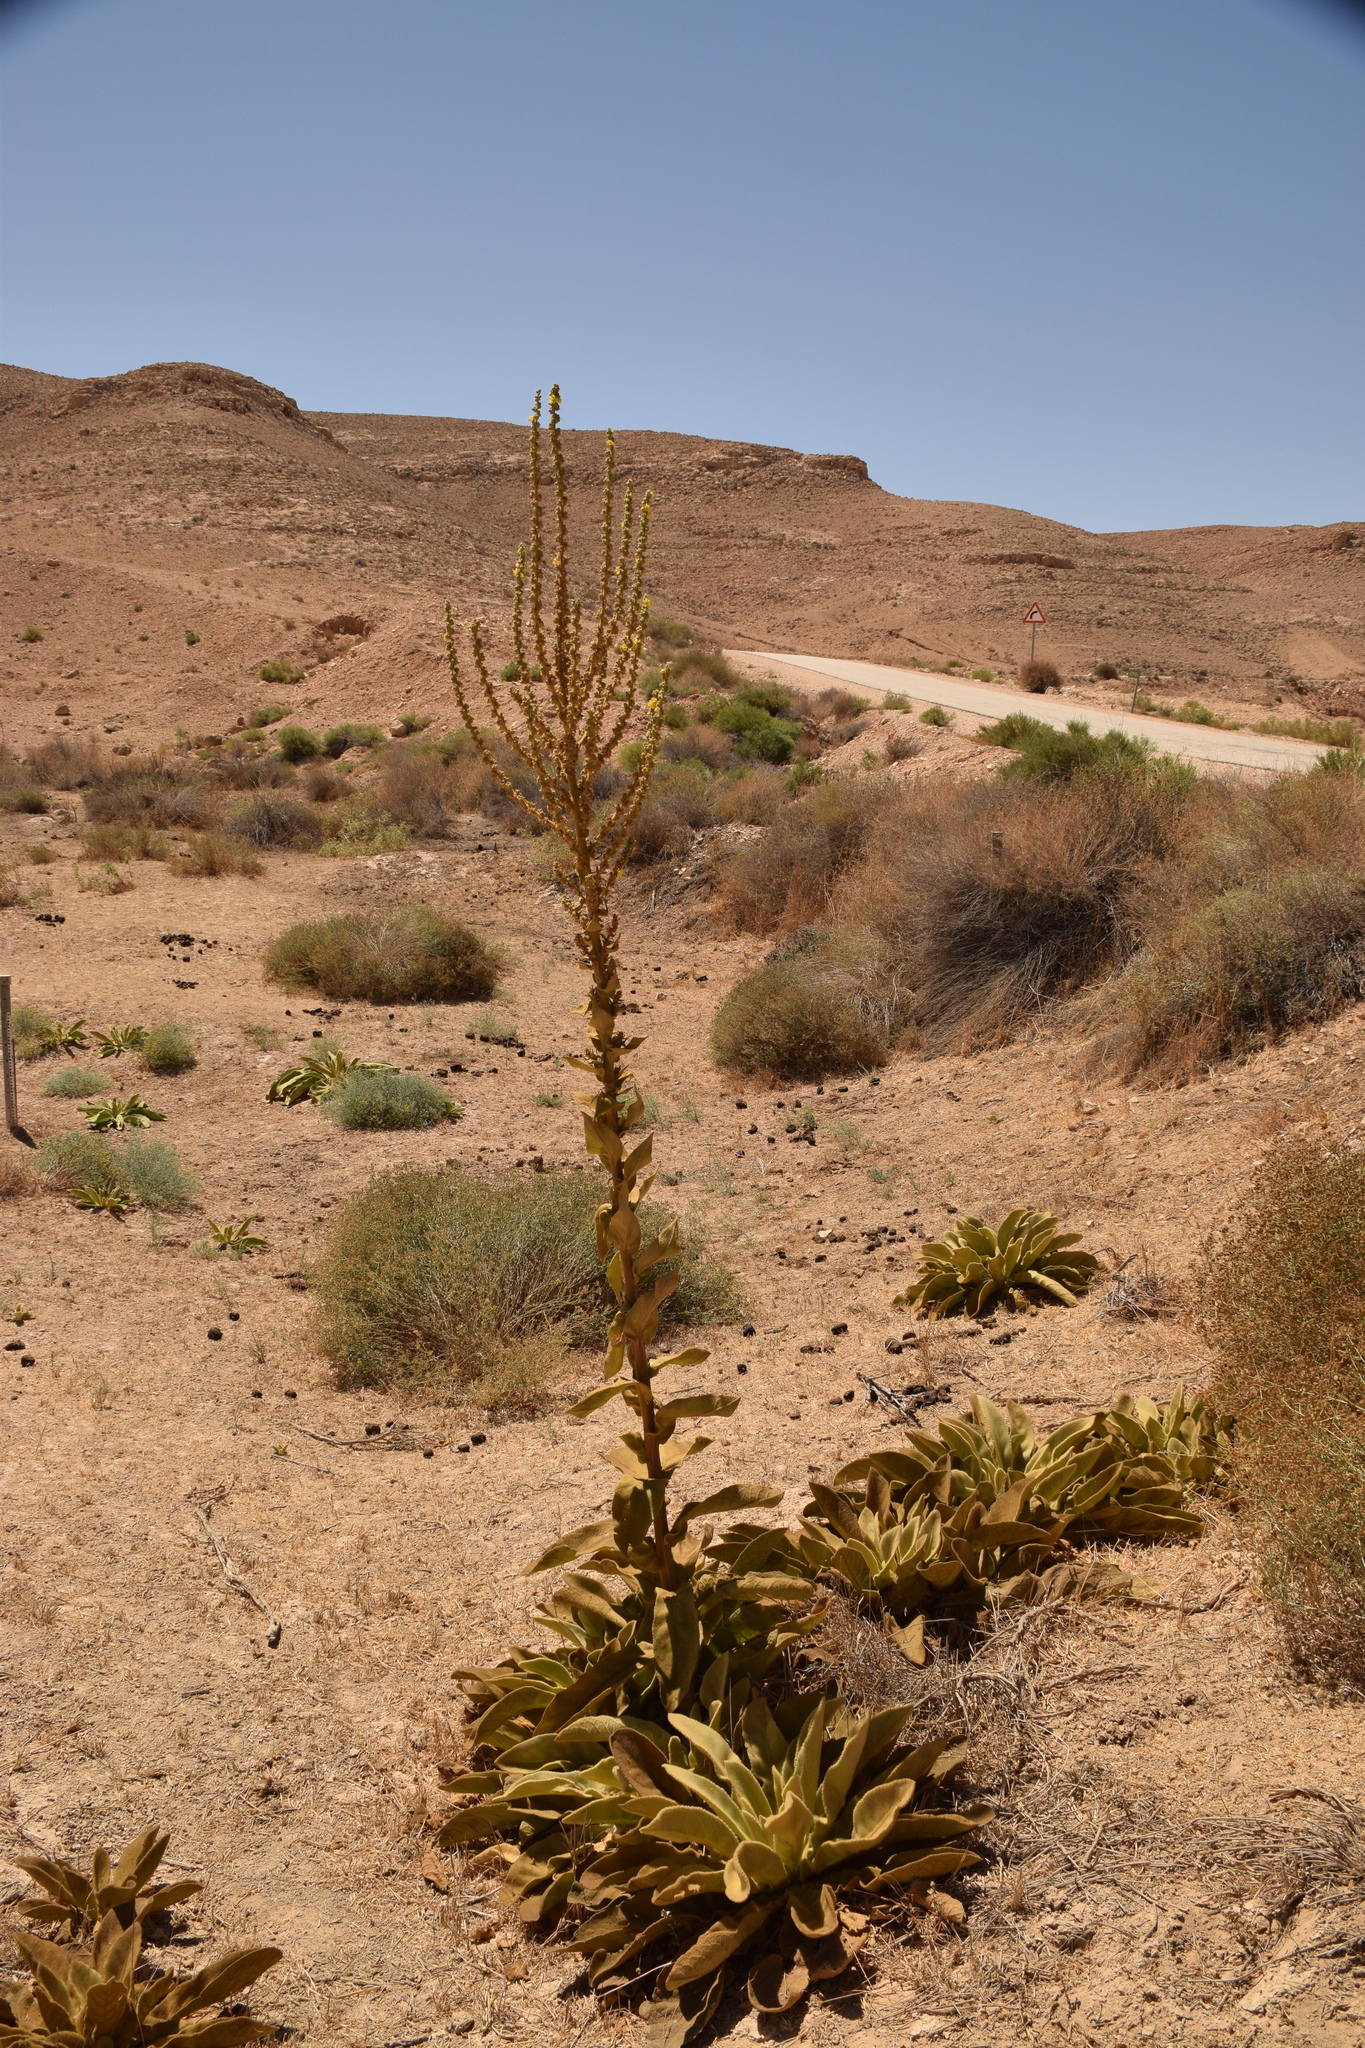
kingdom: Plantae
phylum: Tracheophyta
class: Magnoliopsida
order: Lamiales
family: Scrophulariaceae
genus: Verbascum
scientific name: Verbascum sinaiticum
